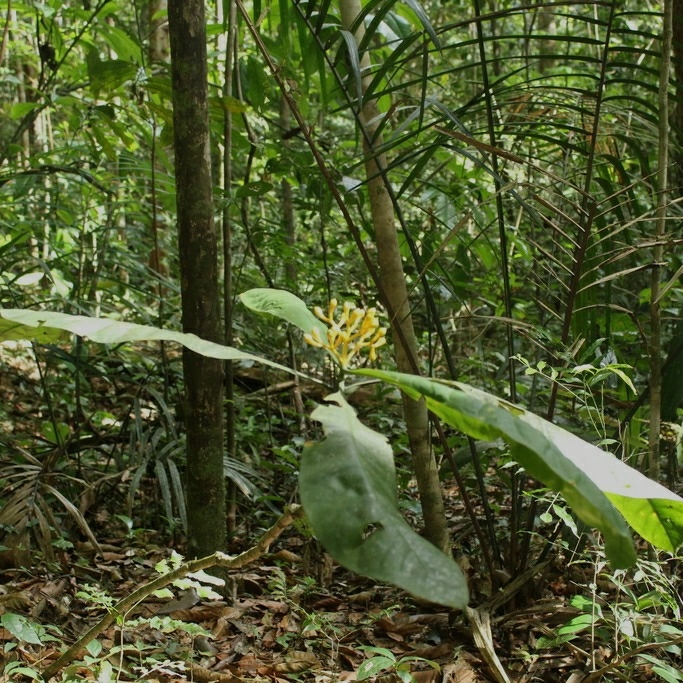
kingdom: Plantae
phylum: Tracheophyta
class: Magnoliopsida
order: Gentianales
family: Gentianaceae
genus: Potalia
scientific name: Potalia amara
